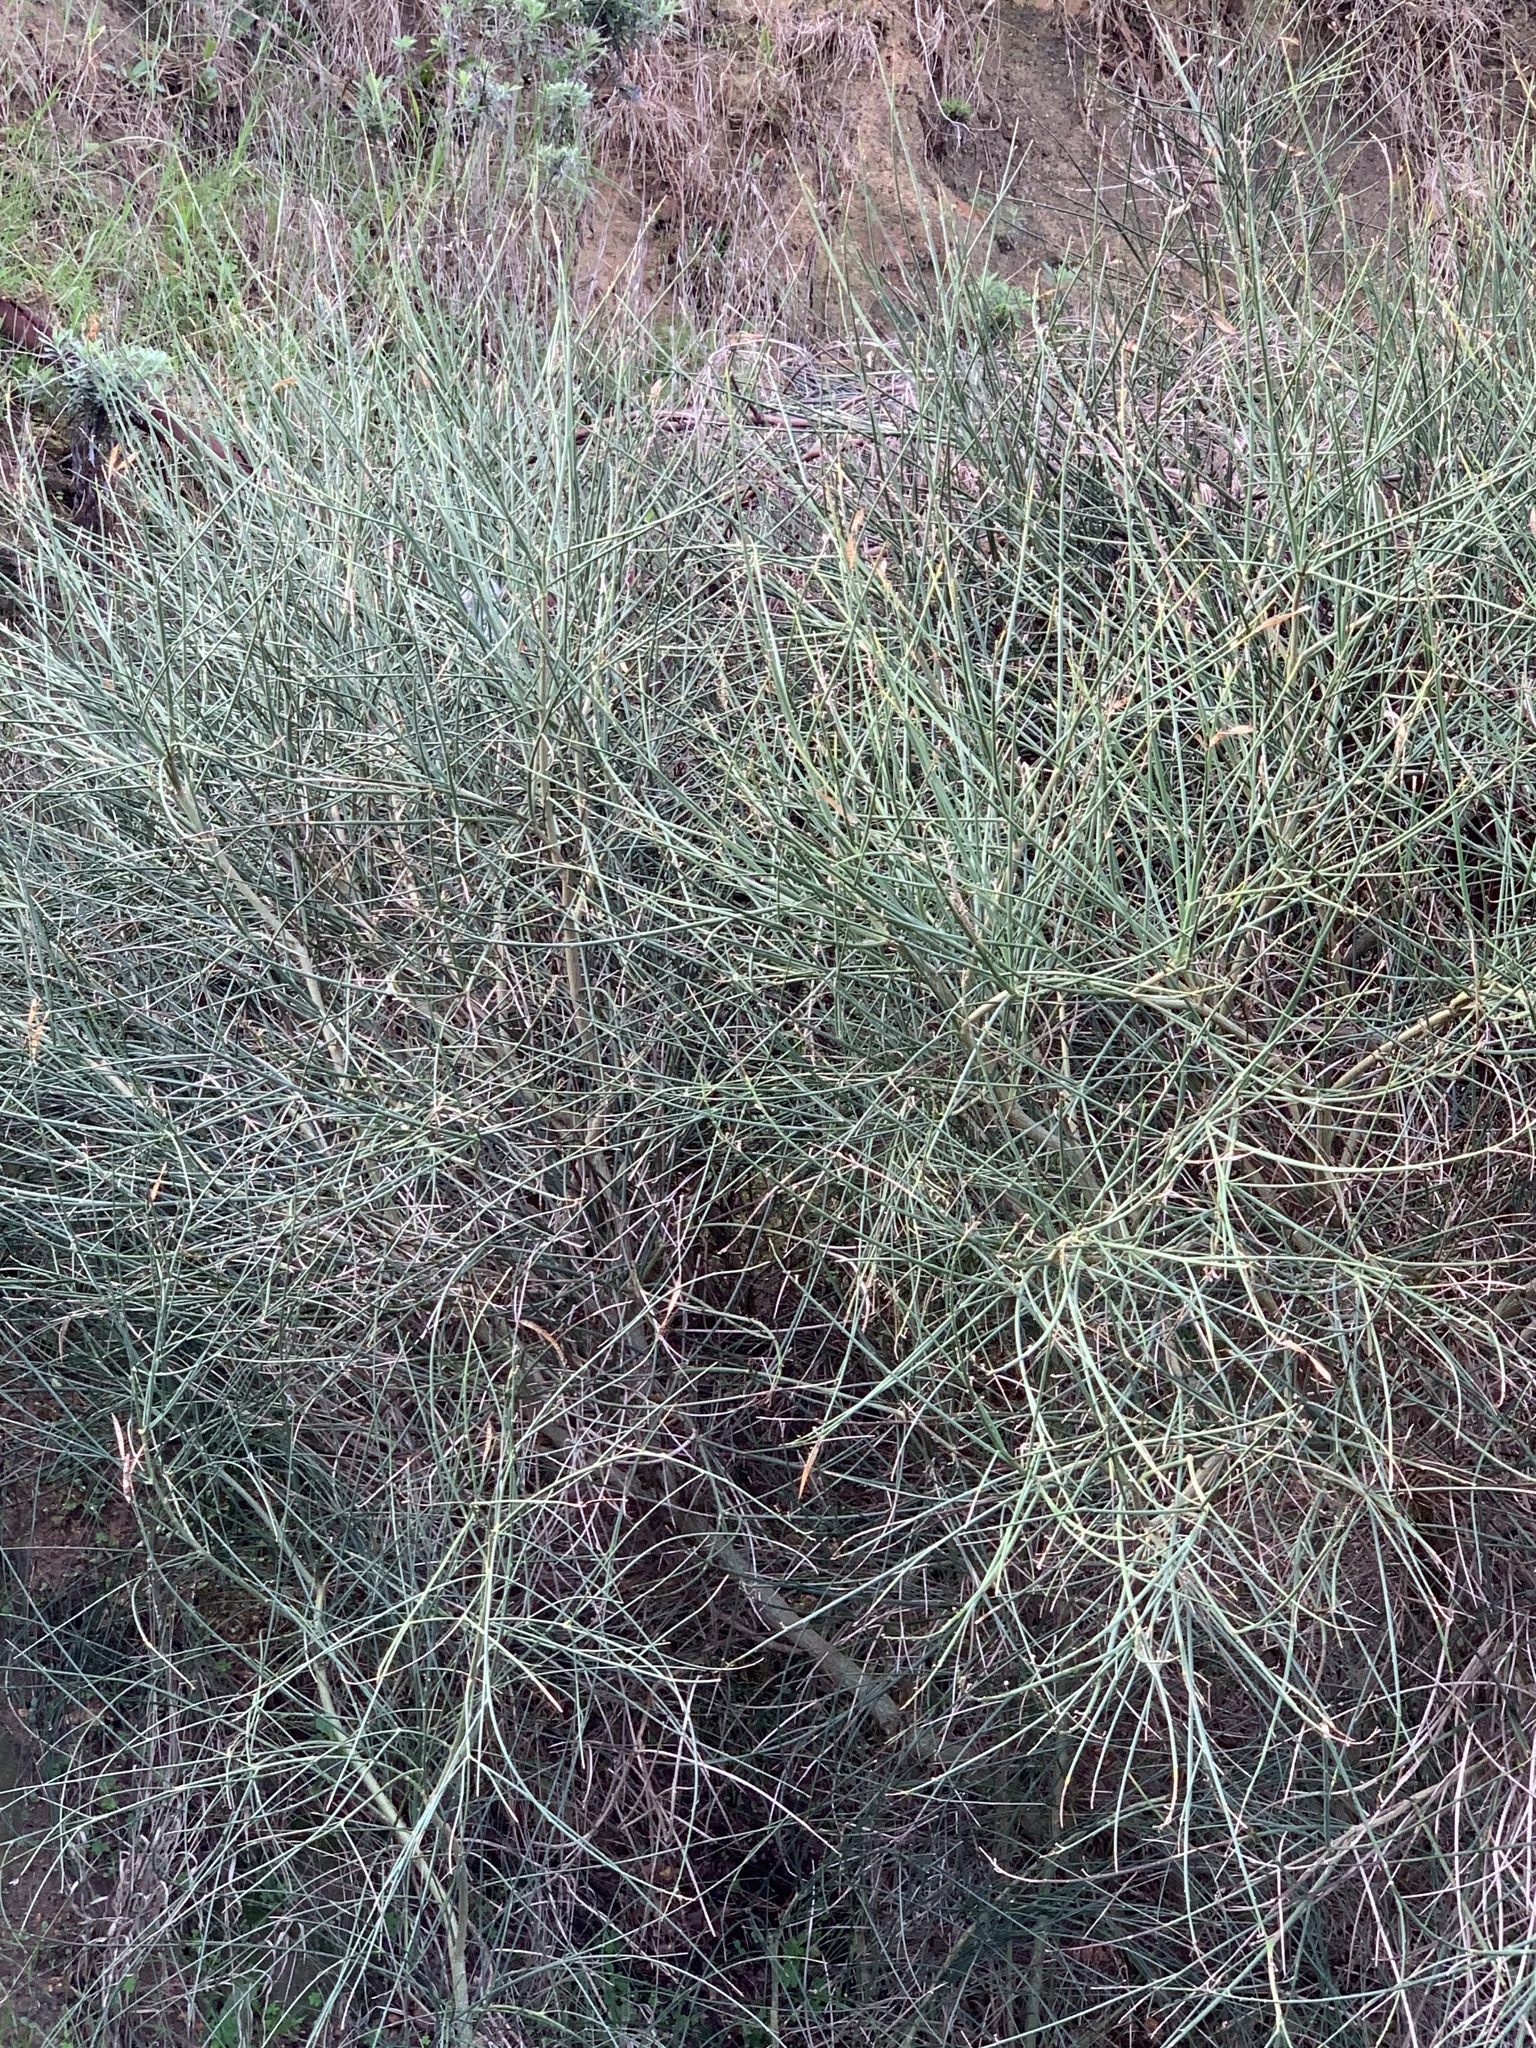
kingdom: Plantae
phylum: Tracheophyta
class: Magnoliopsida
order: Fabales
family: Fabaceae
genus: Spartium
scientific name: Spartium junceum
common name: Spanish broom
